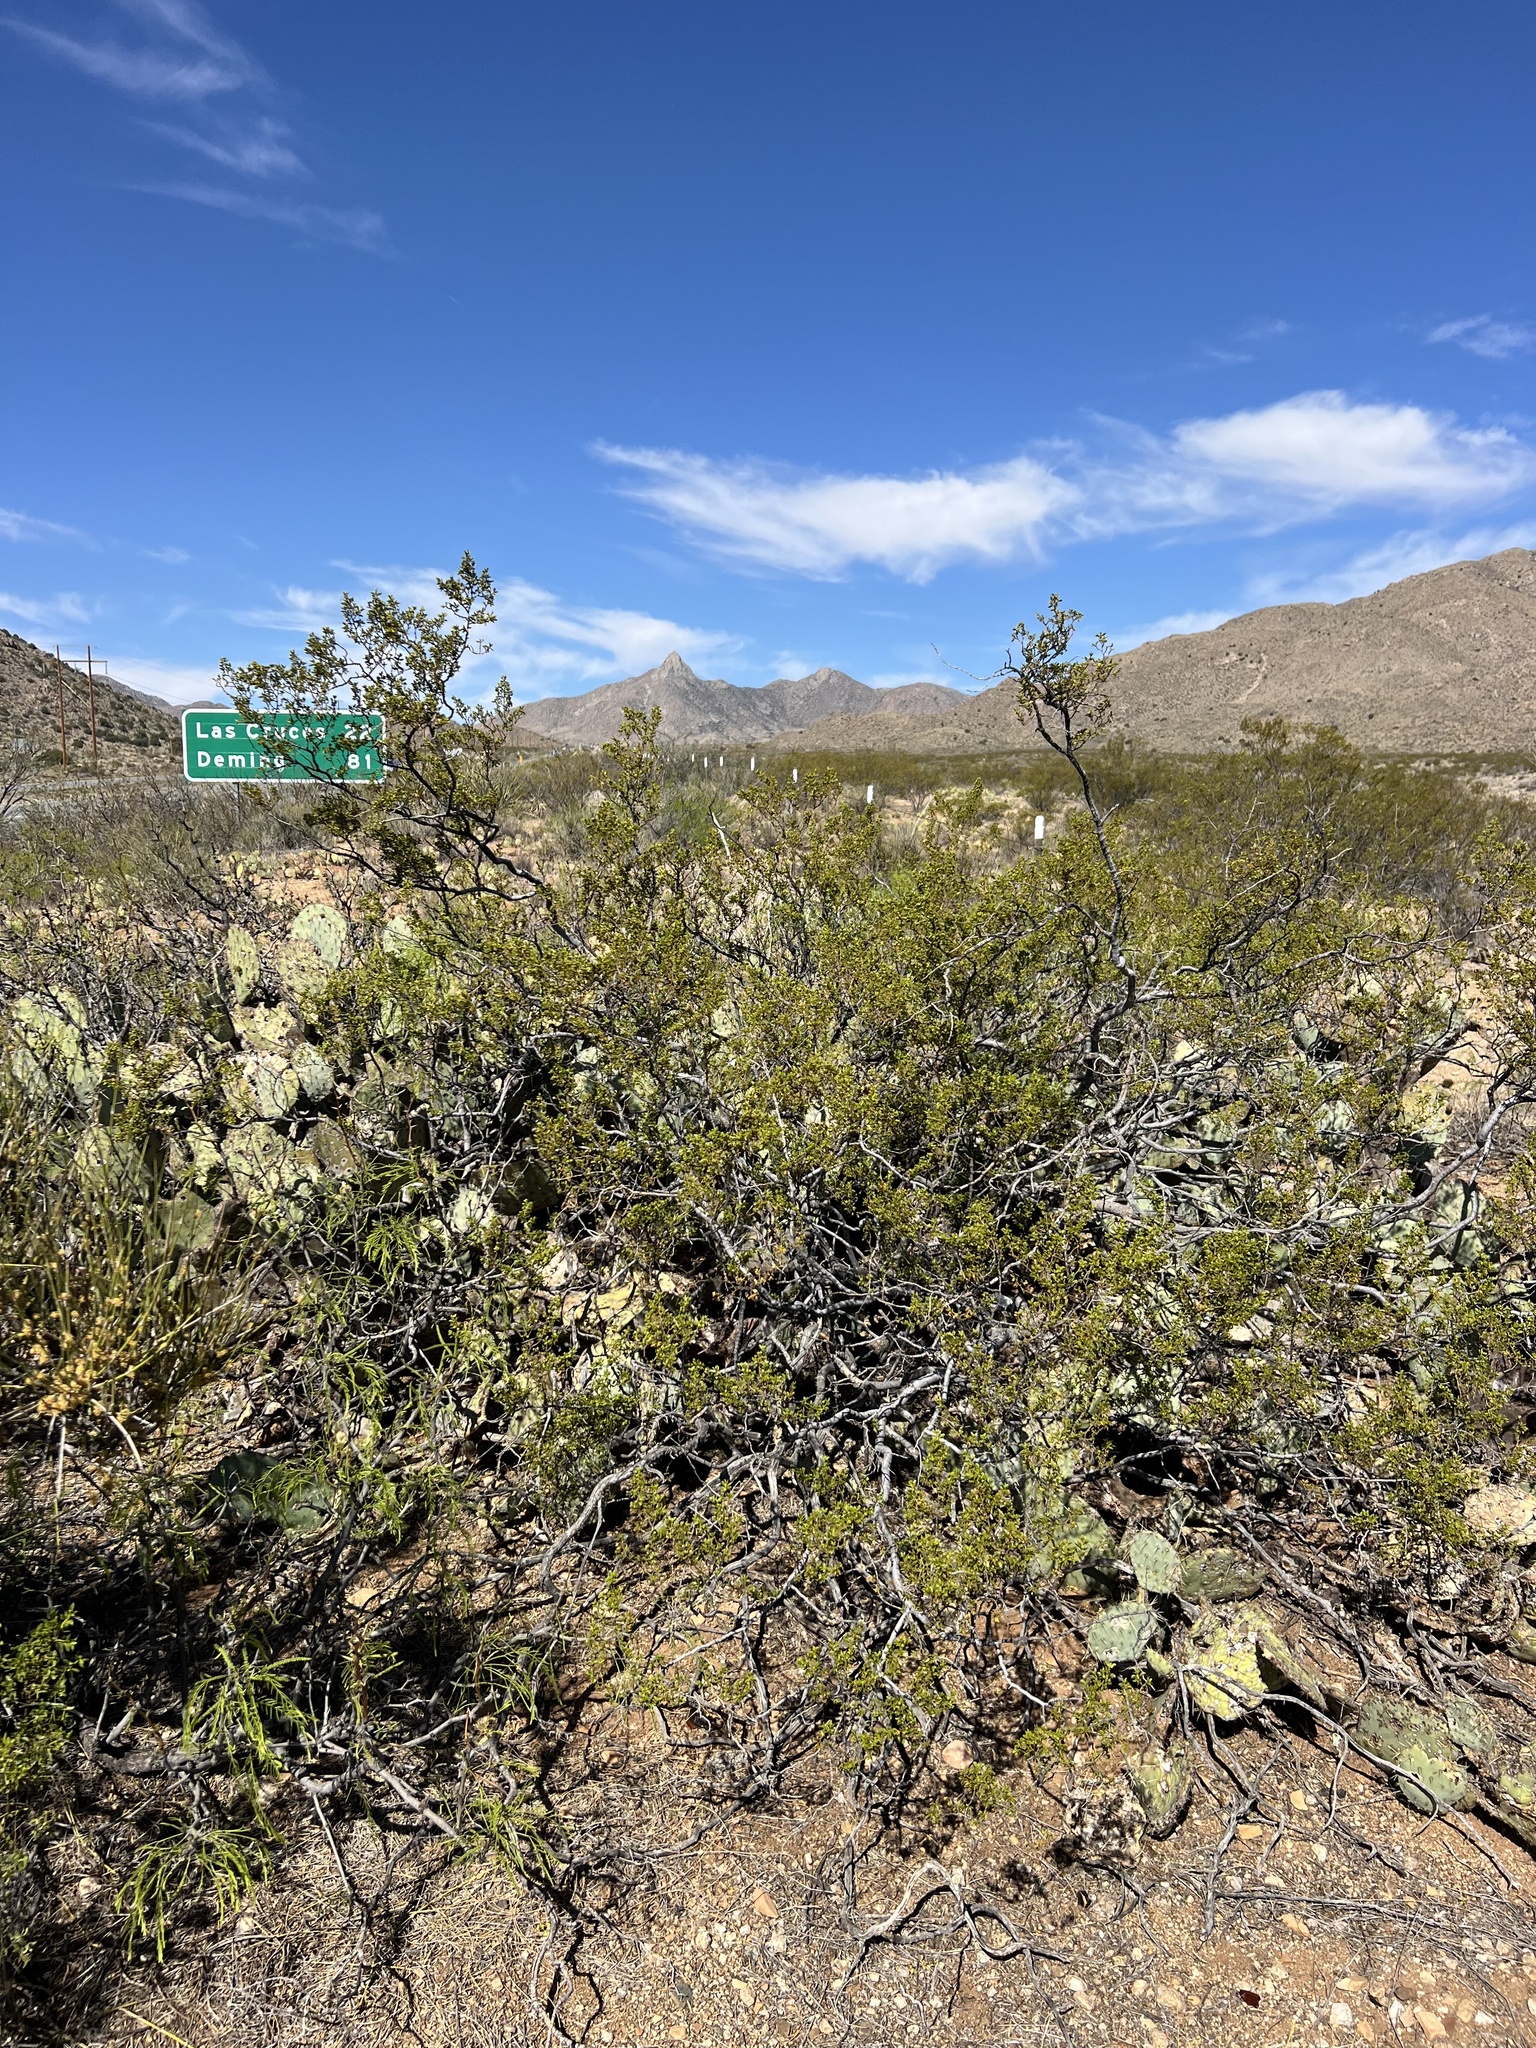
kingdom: Plantae
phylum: Tracheophyta
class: Magnoliopsida
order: Zygophyllales
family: Zygophyllaceae
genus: Larrea
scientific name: Larrea tridentata
